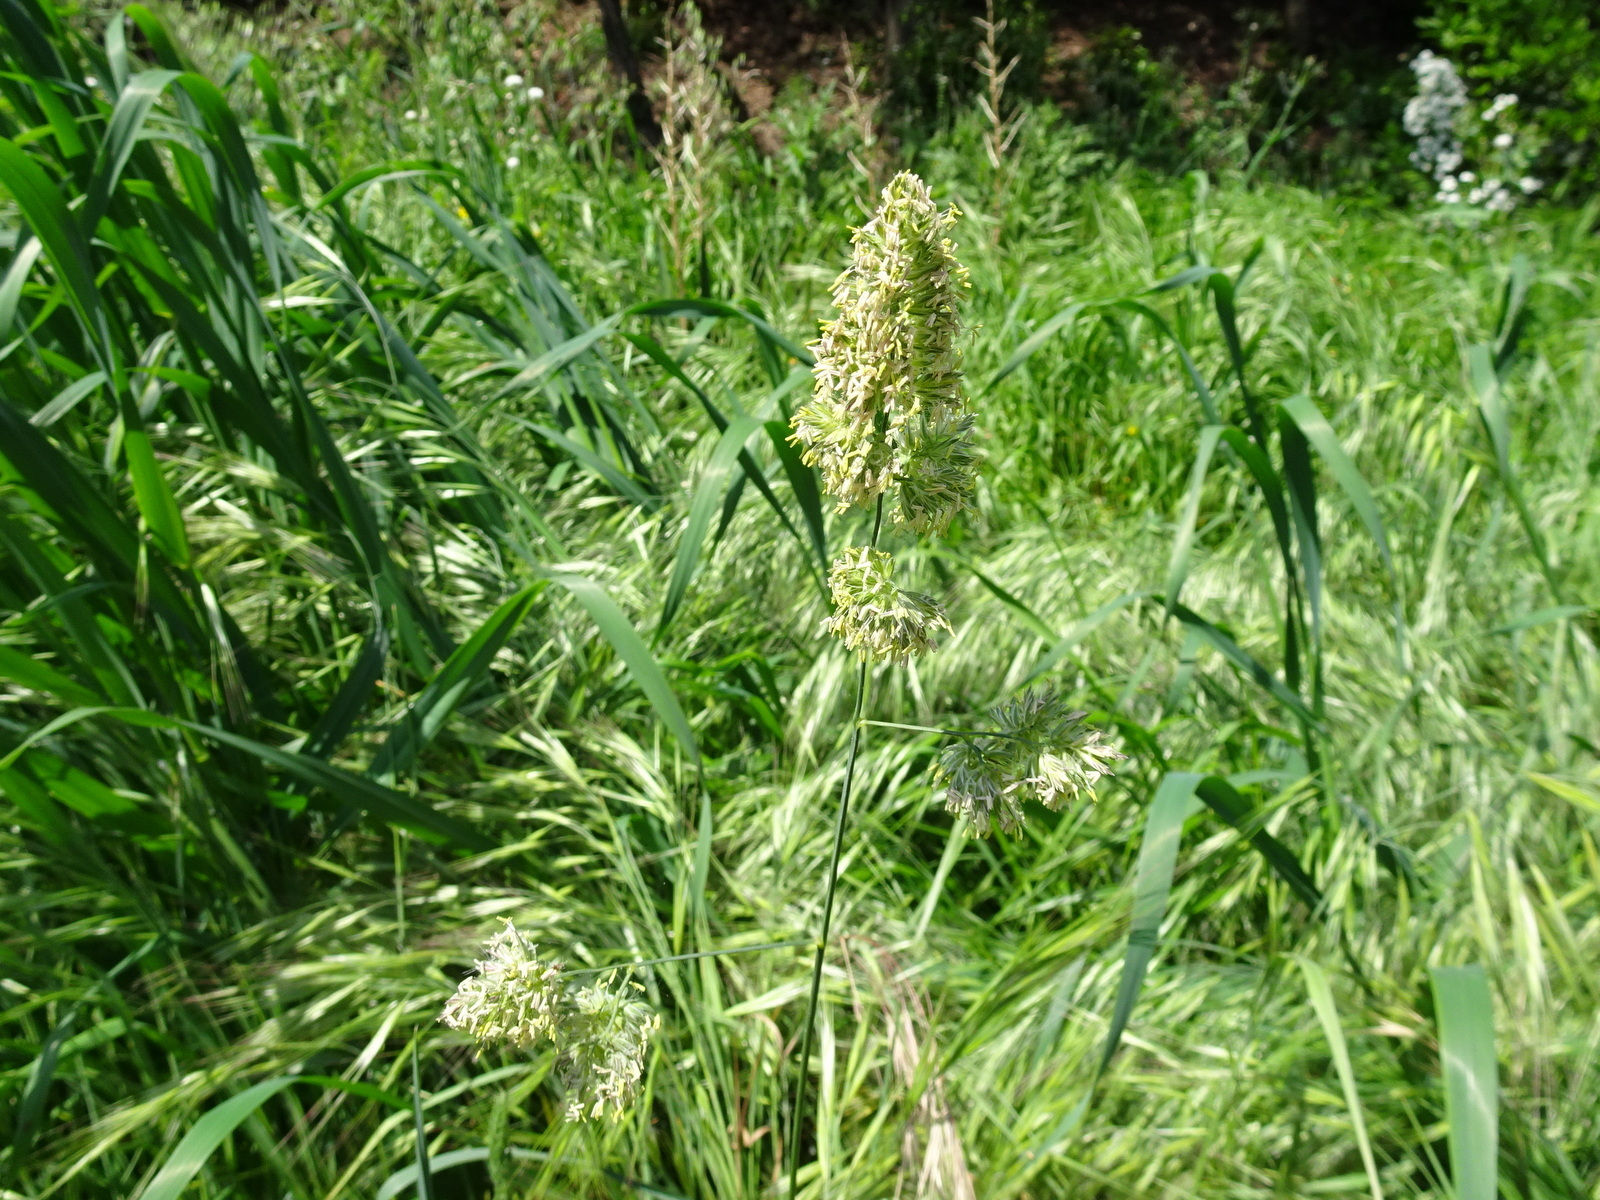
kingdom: Plantae
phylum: Tracheophyta
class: Liliopsida
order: Poales
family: Poaceae
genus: Dactylis
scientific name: Dactylis glomerata
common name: Orchardgrass
